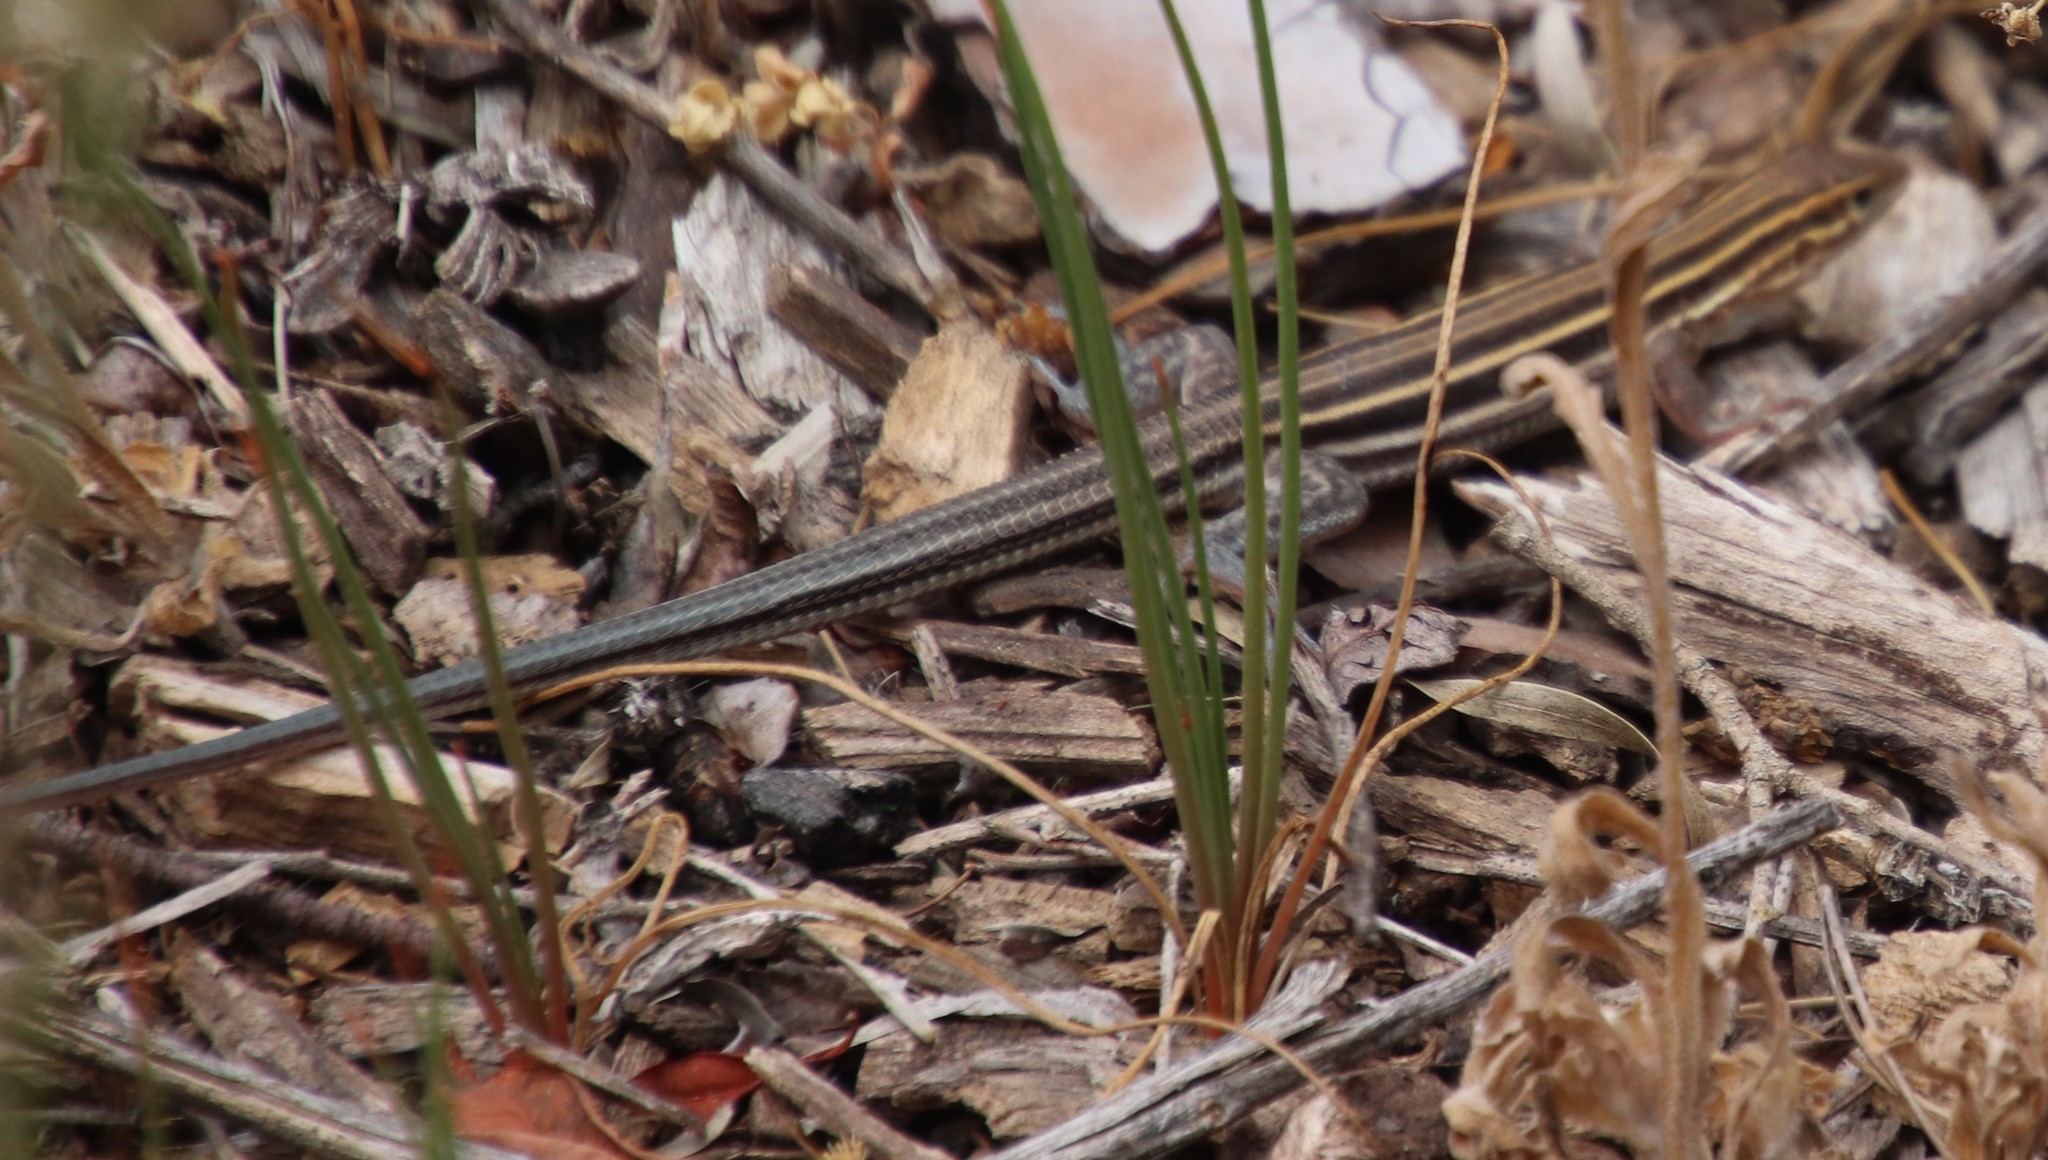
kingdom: Animalia
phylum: Chordata
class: Squamata
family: Teiidae
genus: Aspidoscelis
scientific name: Aspidoscelis hyperythrus
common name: Orange-throated race-runner
